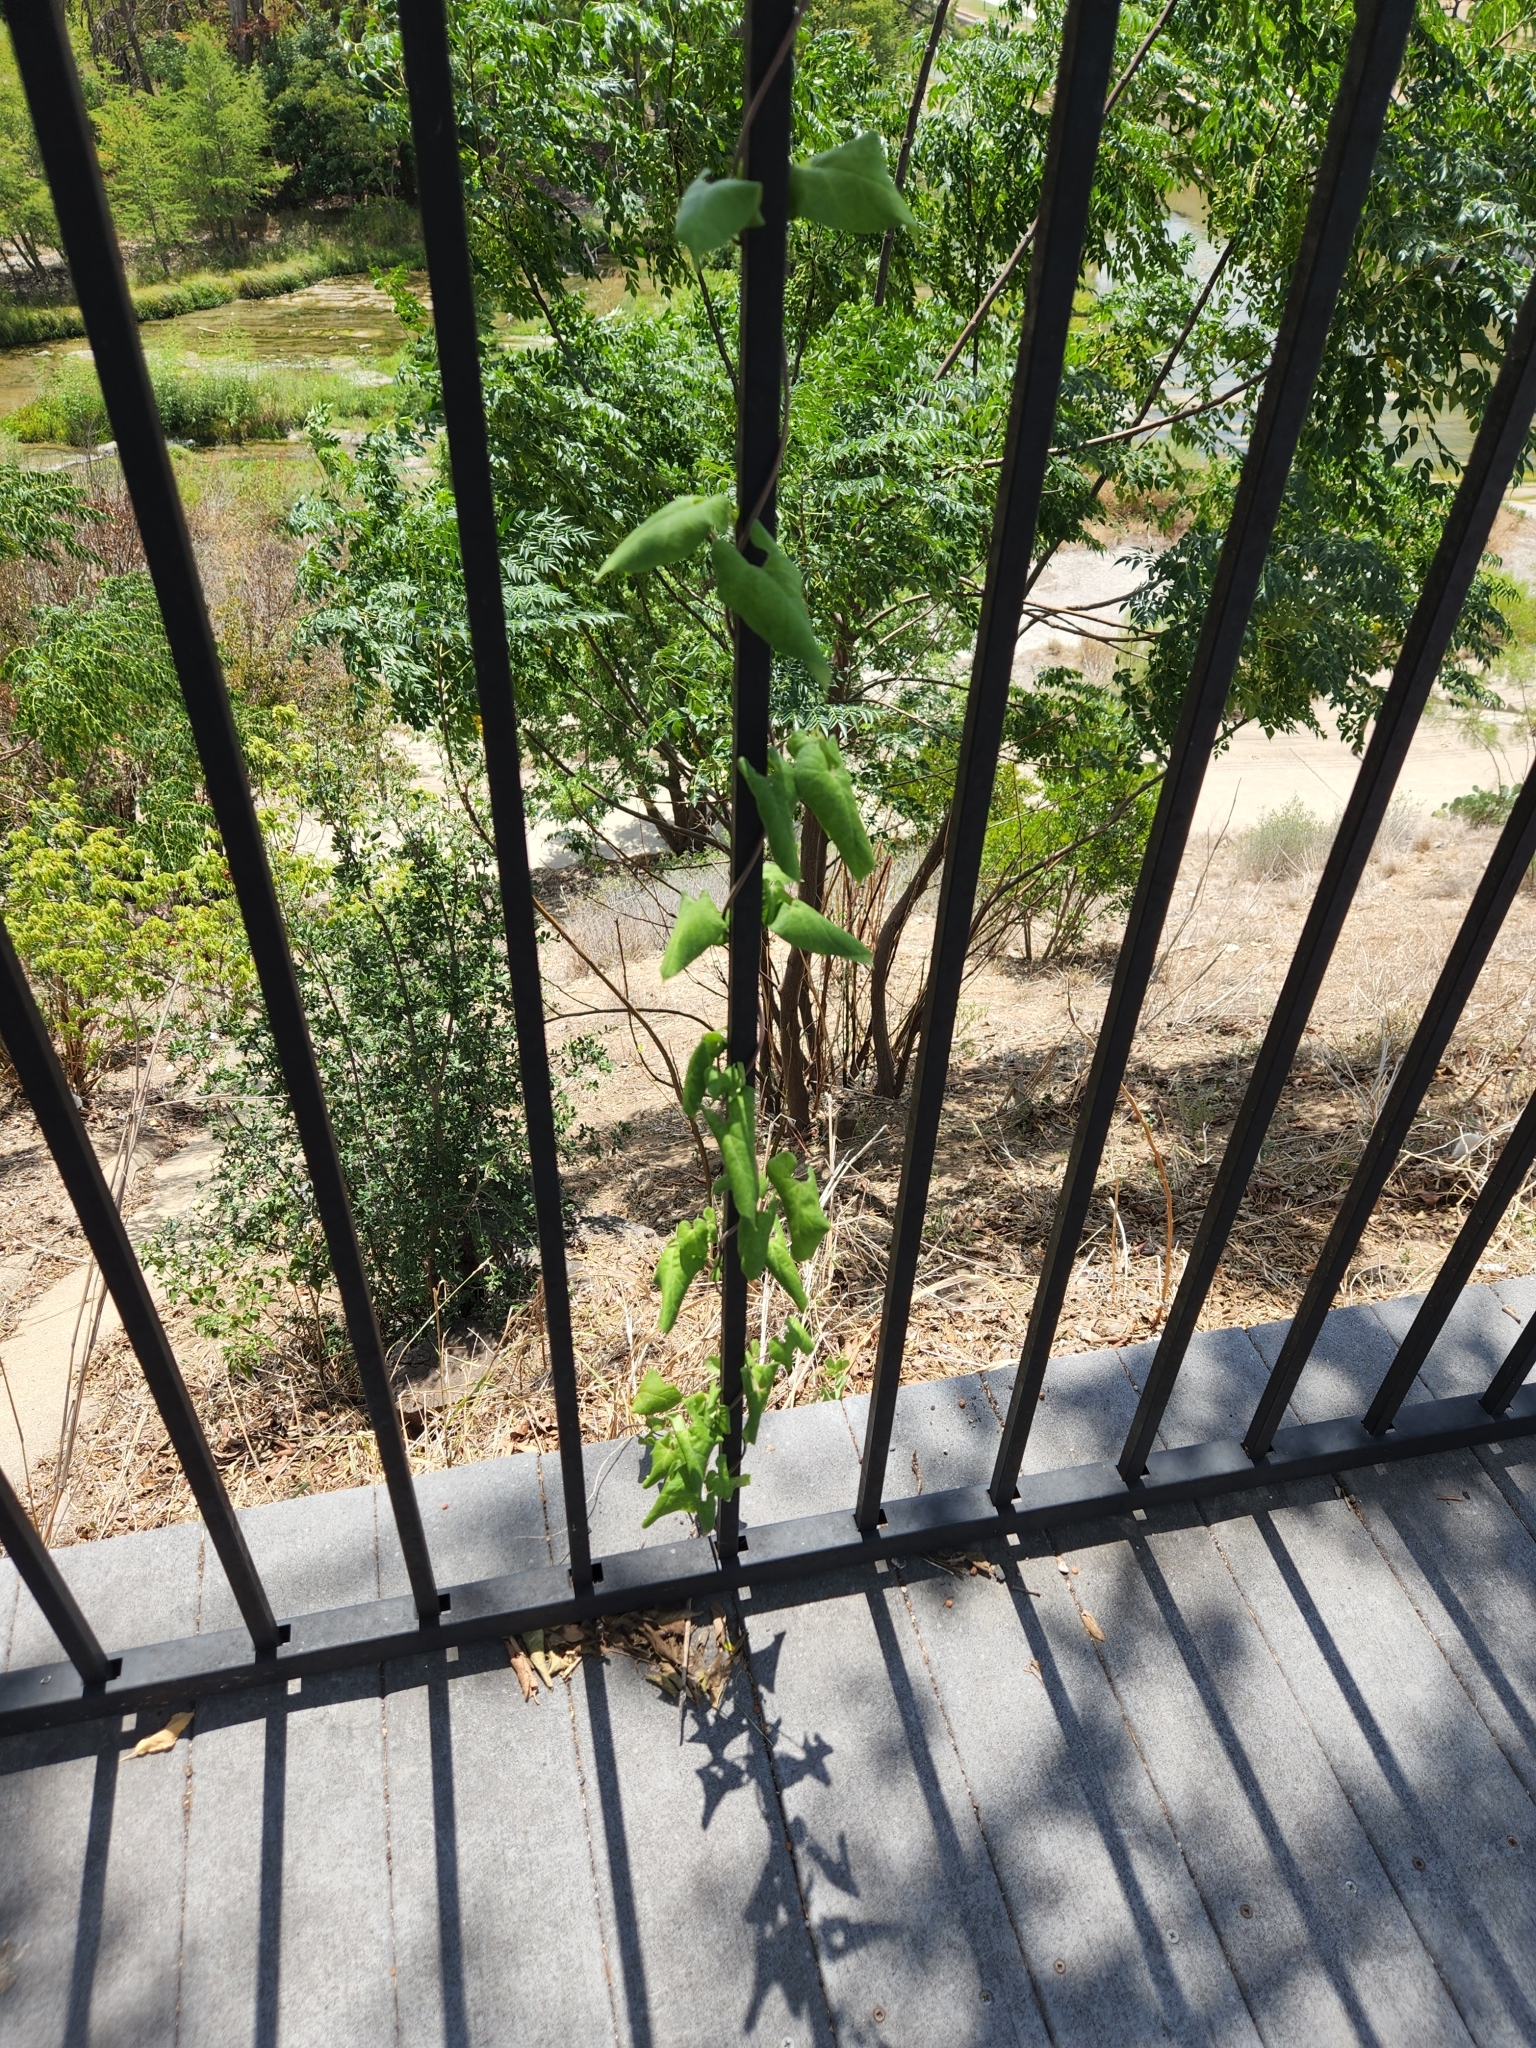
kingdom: Plantae
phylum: Tracheophyta
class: Magnoliopsida
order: Gentianales
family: Apocynaceae
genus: Cynanchum
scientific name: Cynanchum racemosum
